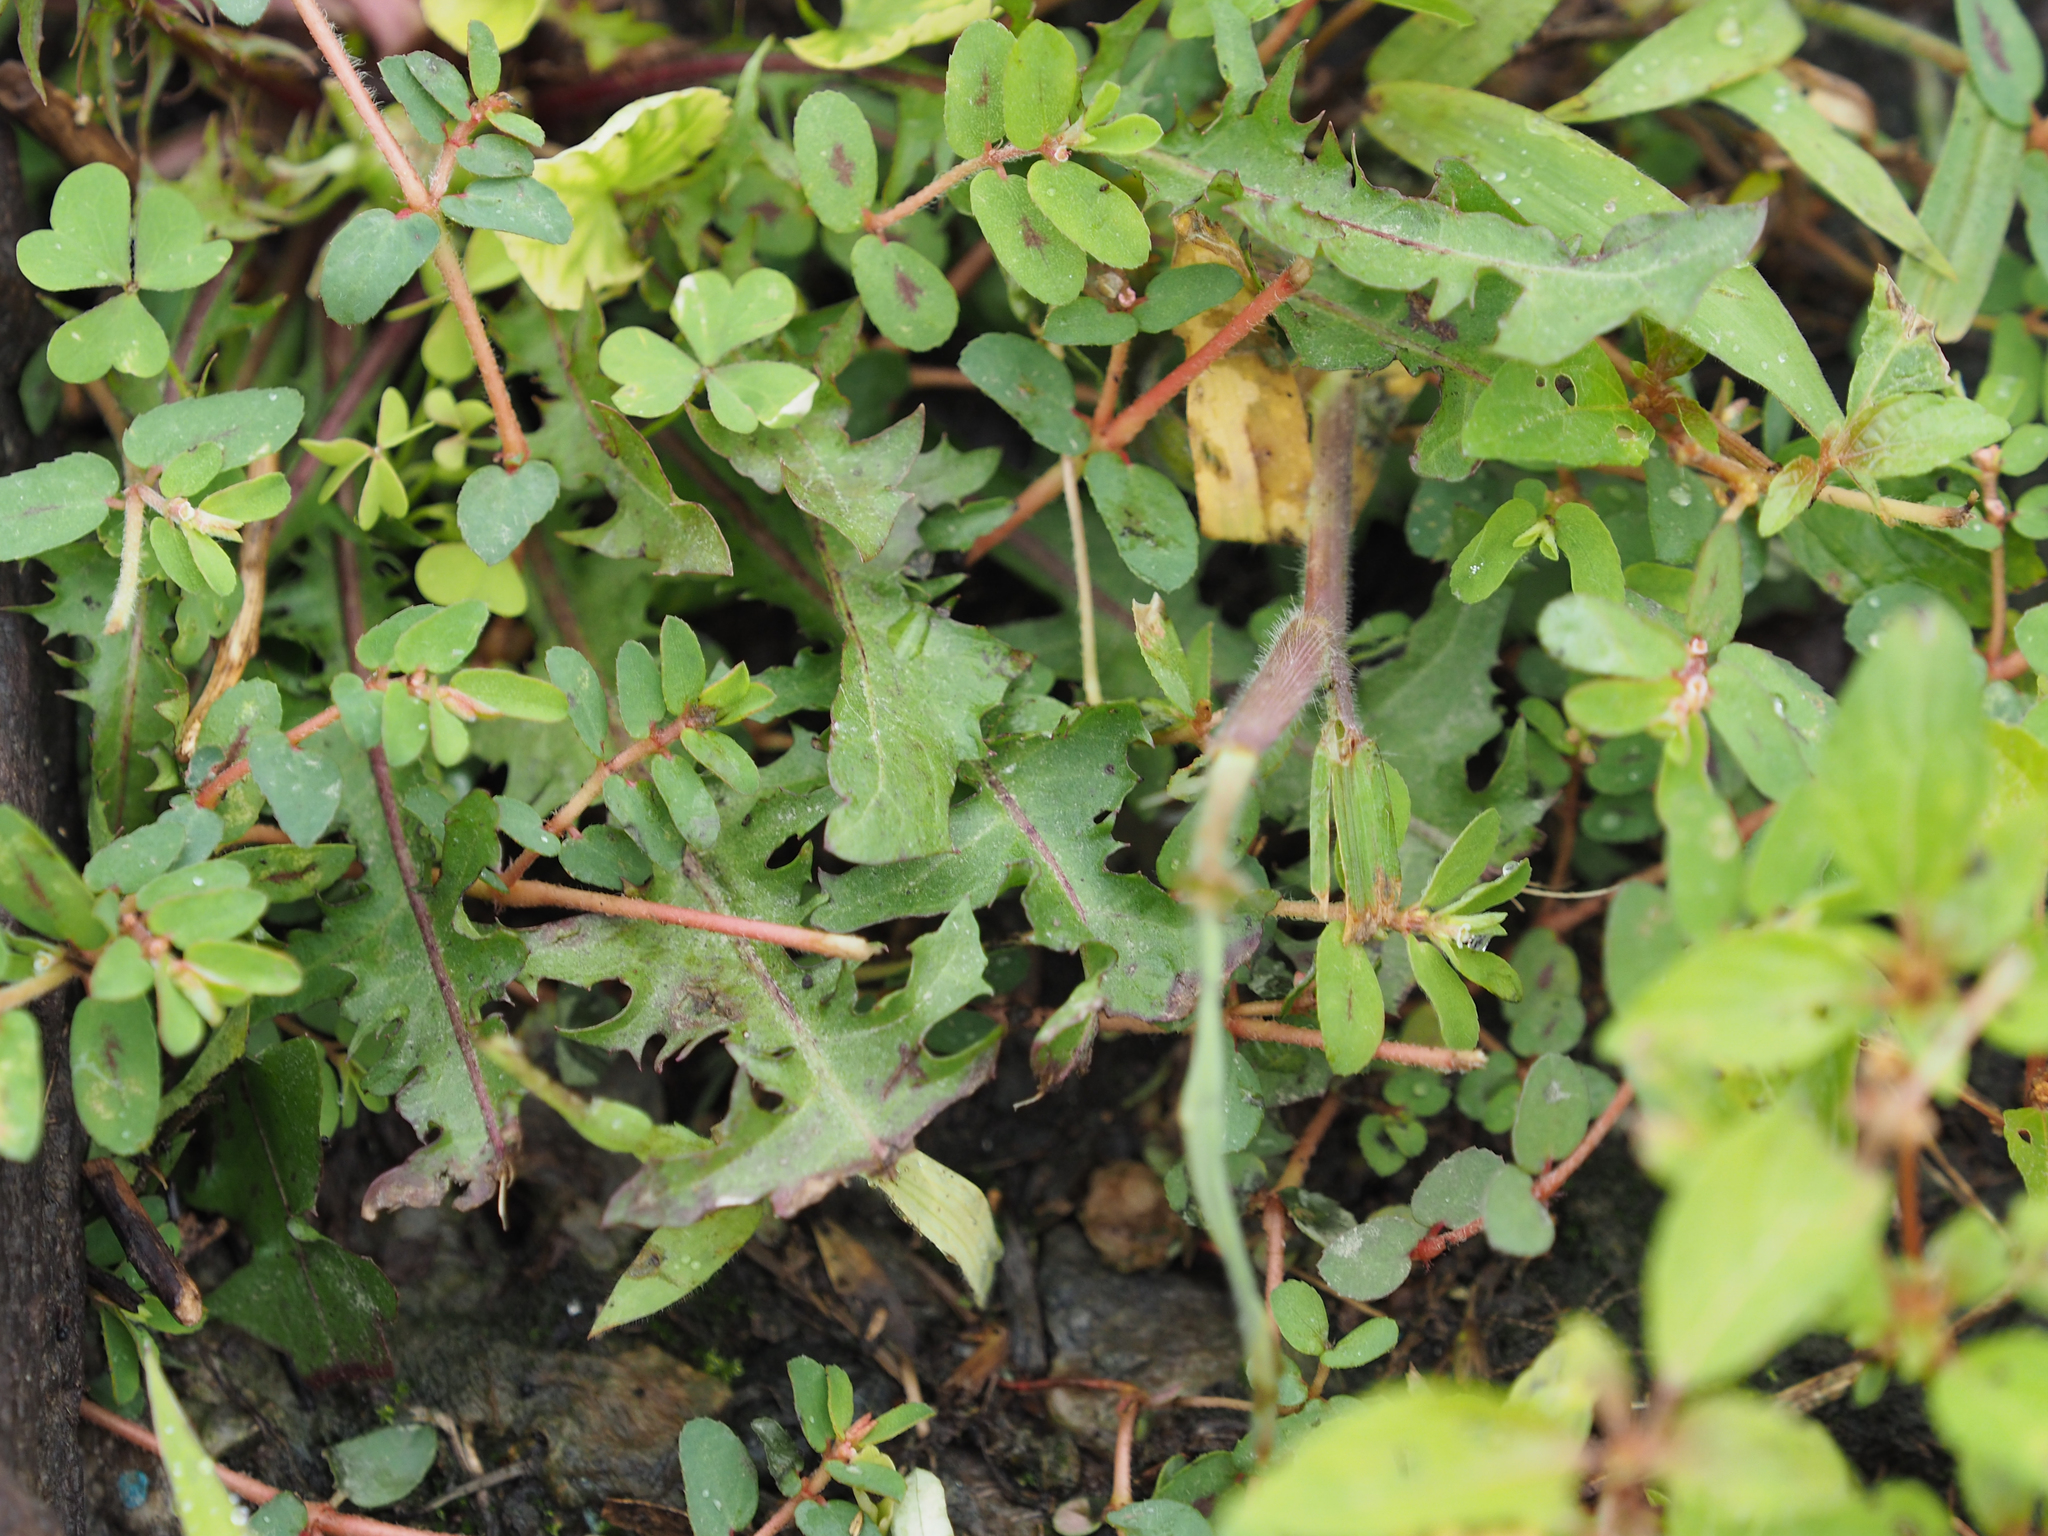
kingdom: Plantae
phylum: Tracheophyta
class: Magnoliopsida
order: Malpighiales
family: Euphorbiaceae
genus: Euphorbia
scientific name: Euphorbia maculata
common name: Spotted spurge
